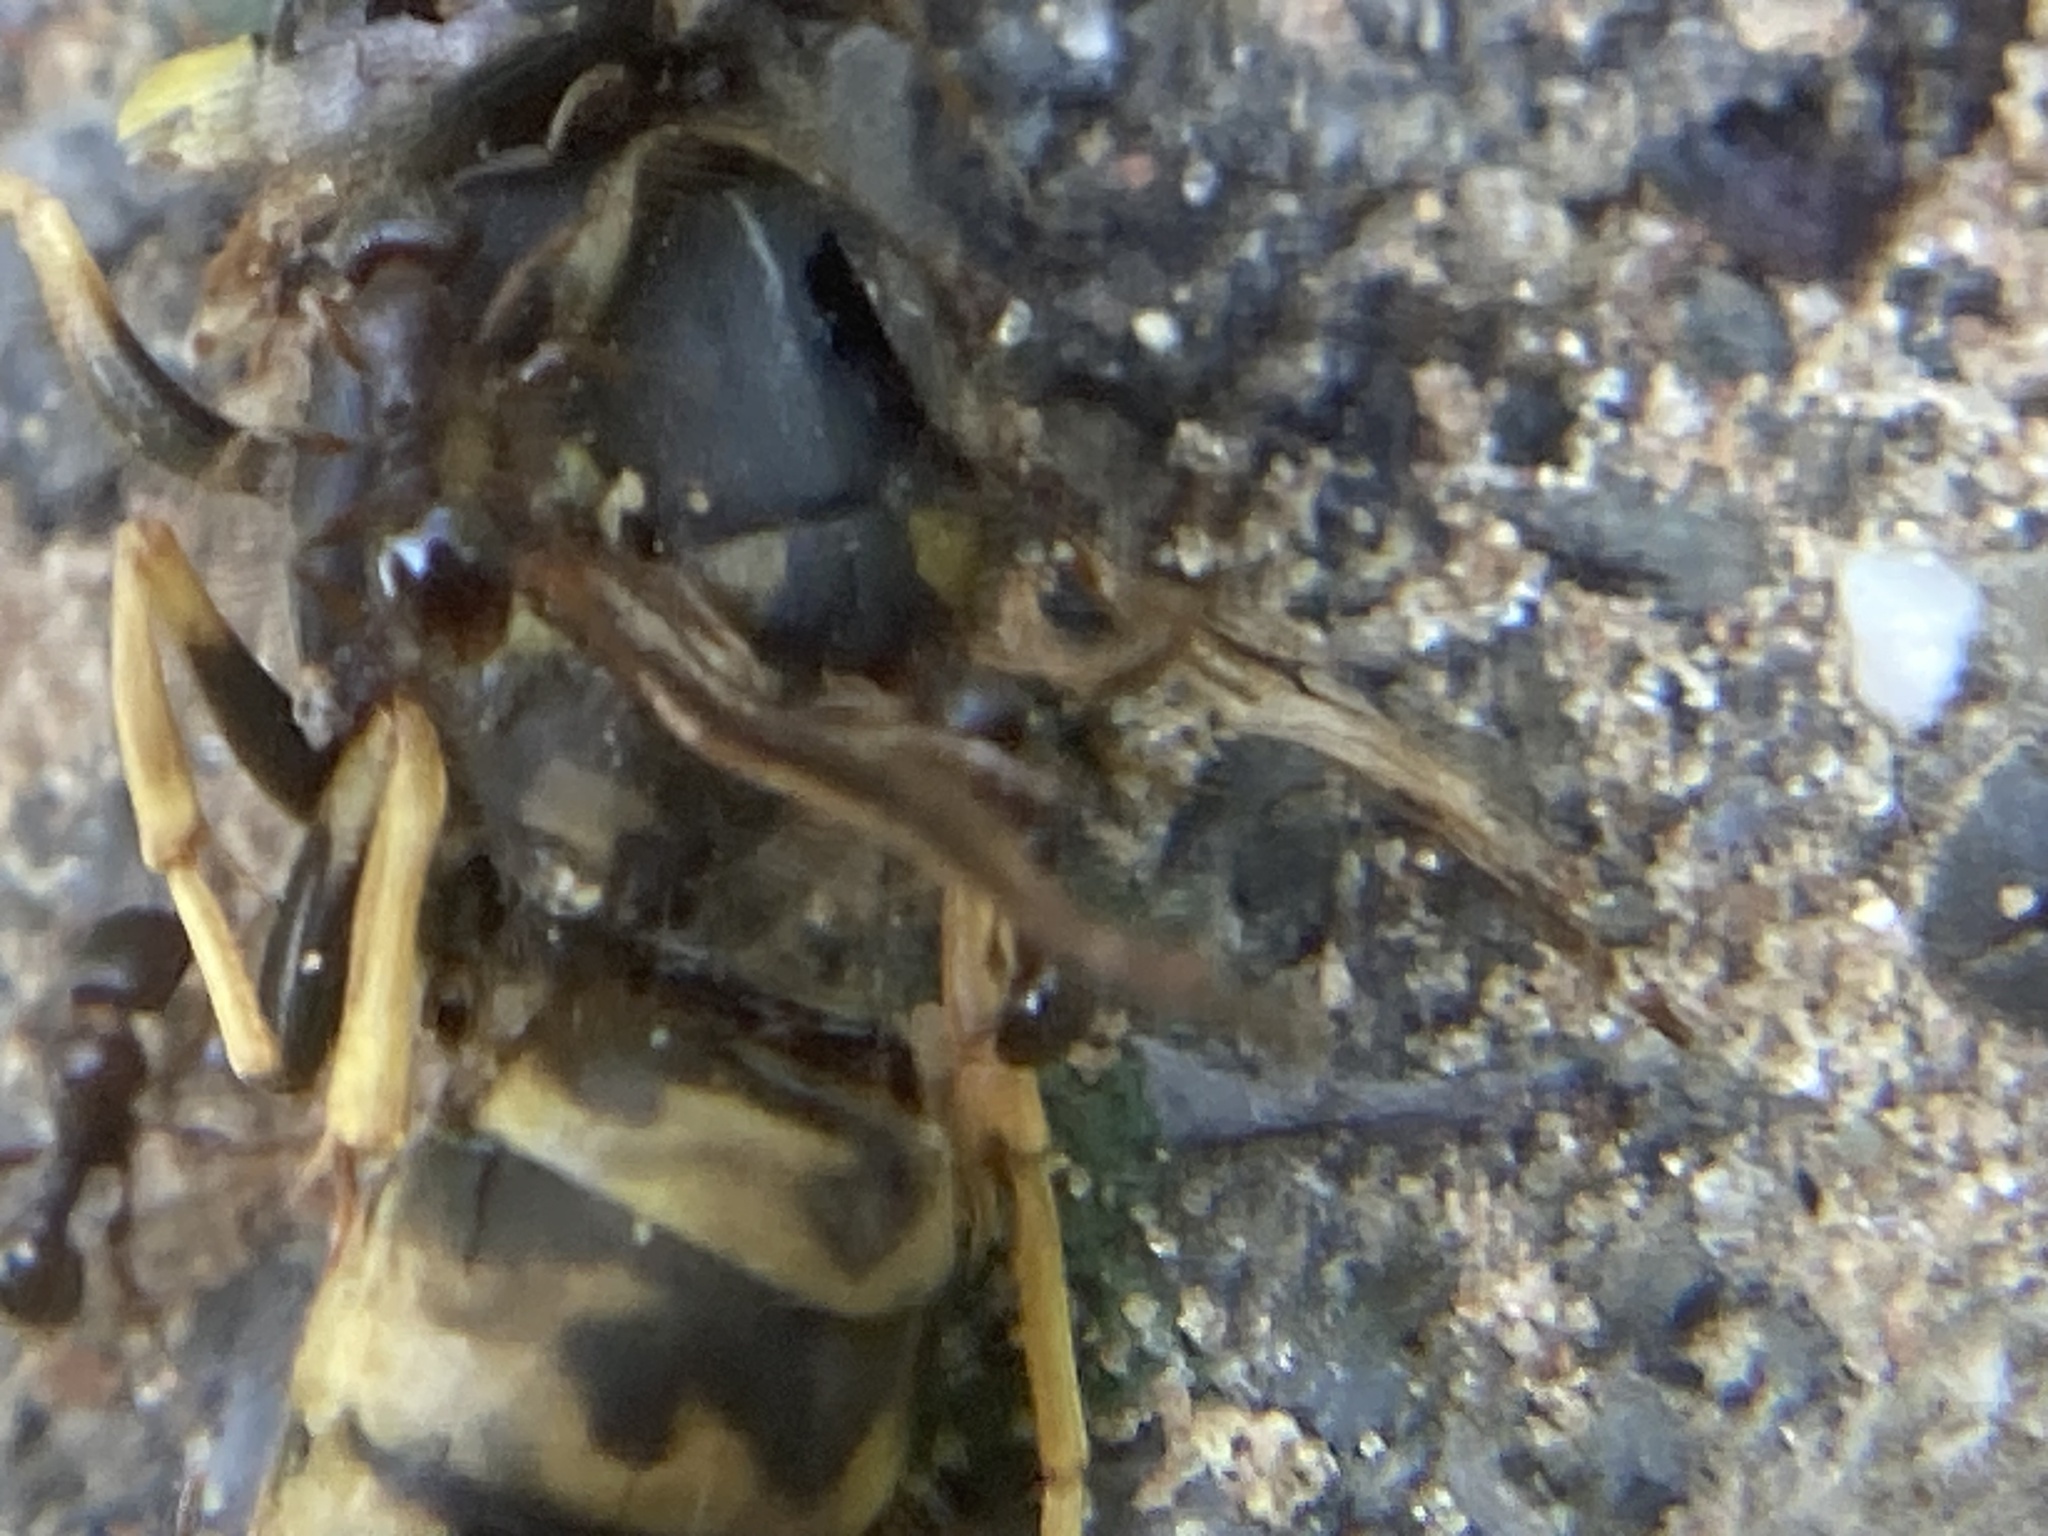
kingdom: Animalia
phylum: Arthropoda
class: Insecta
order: Hymenoptera
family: Vespidae
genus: Vespula
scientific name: Vespula germanica
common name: German wasp
